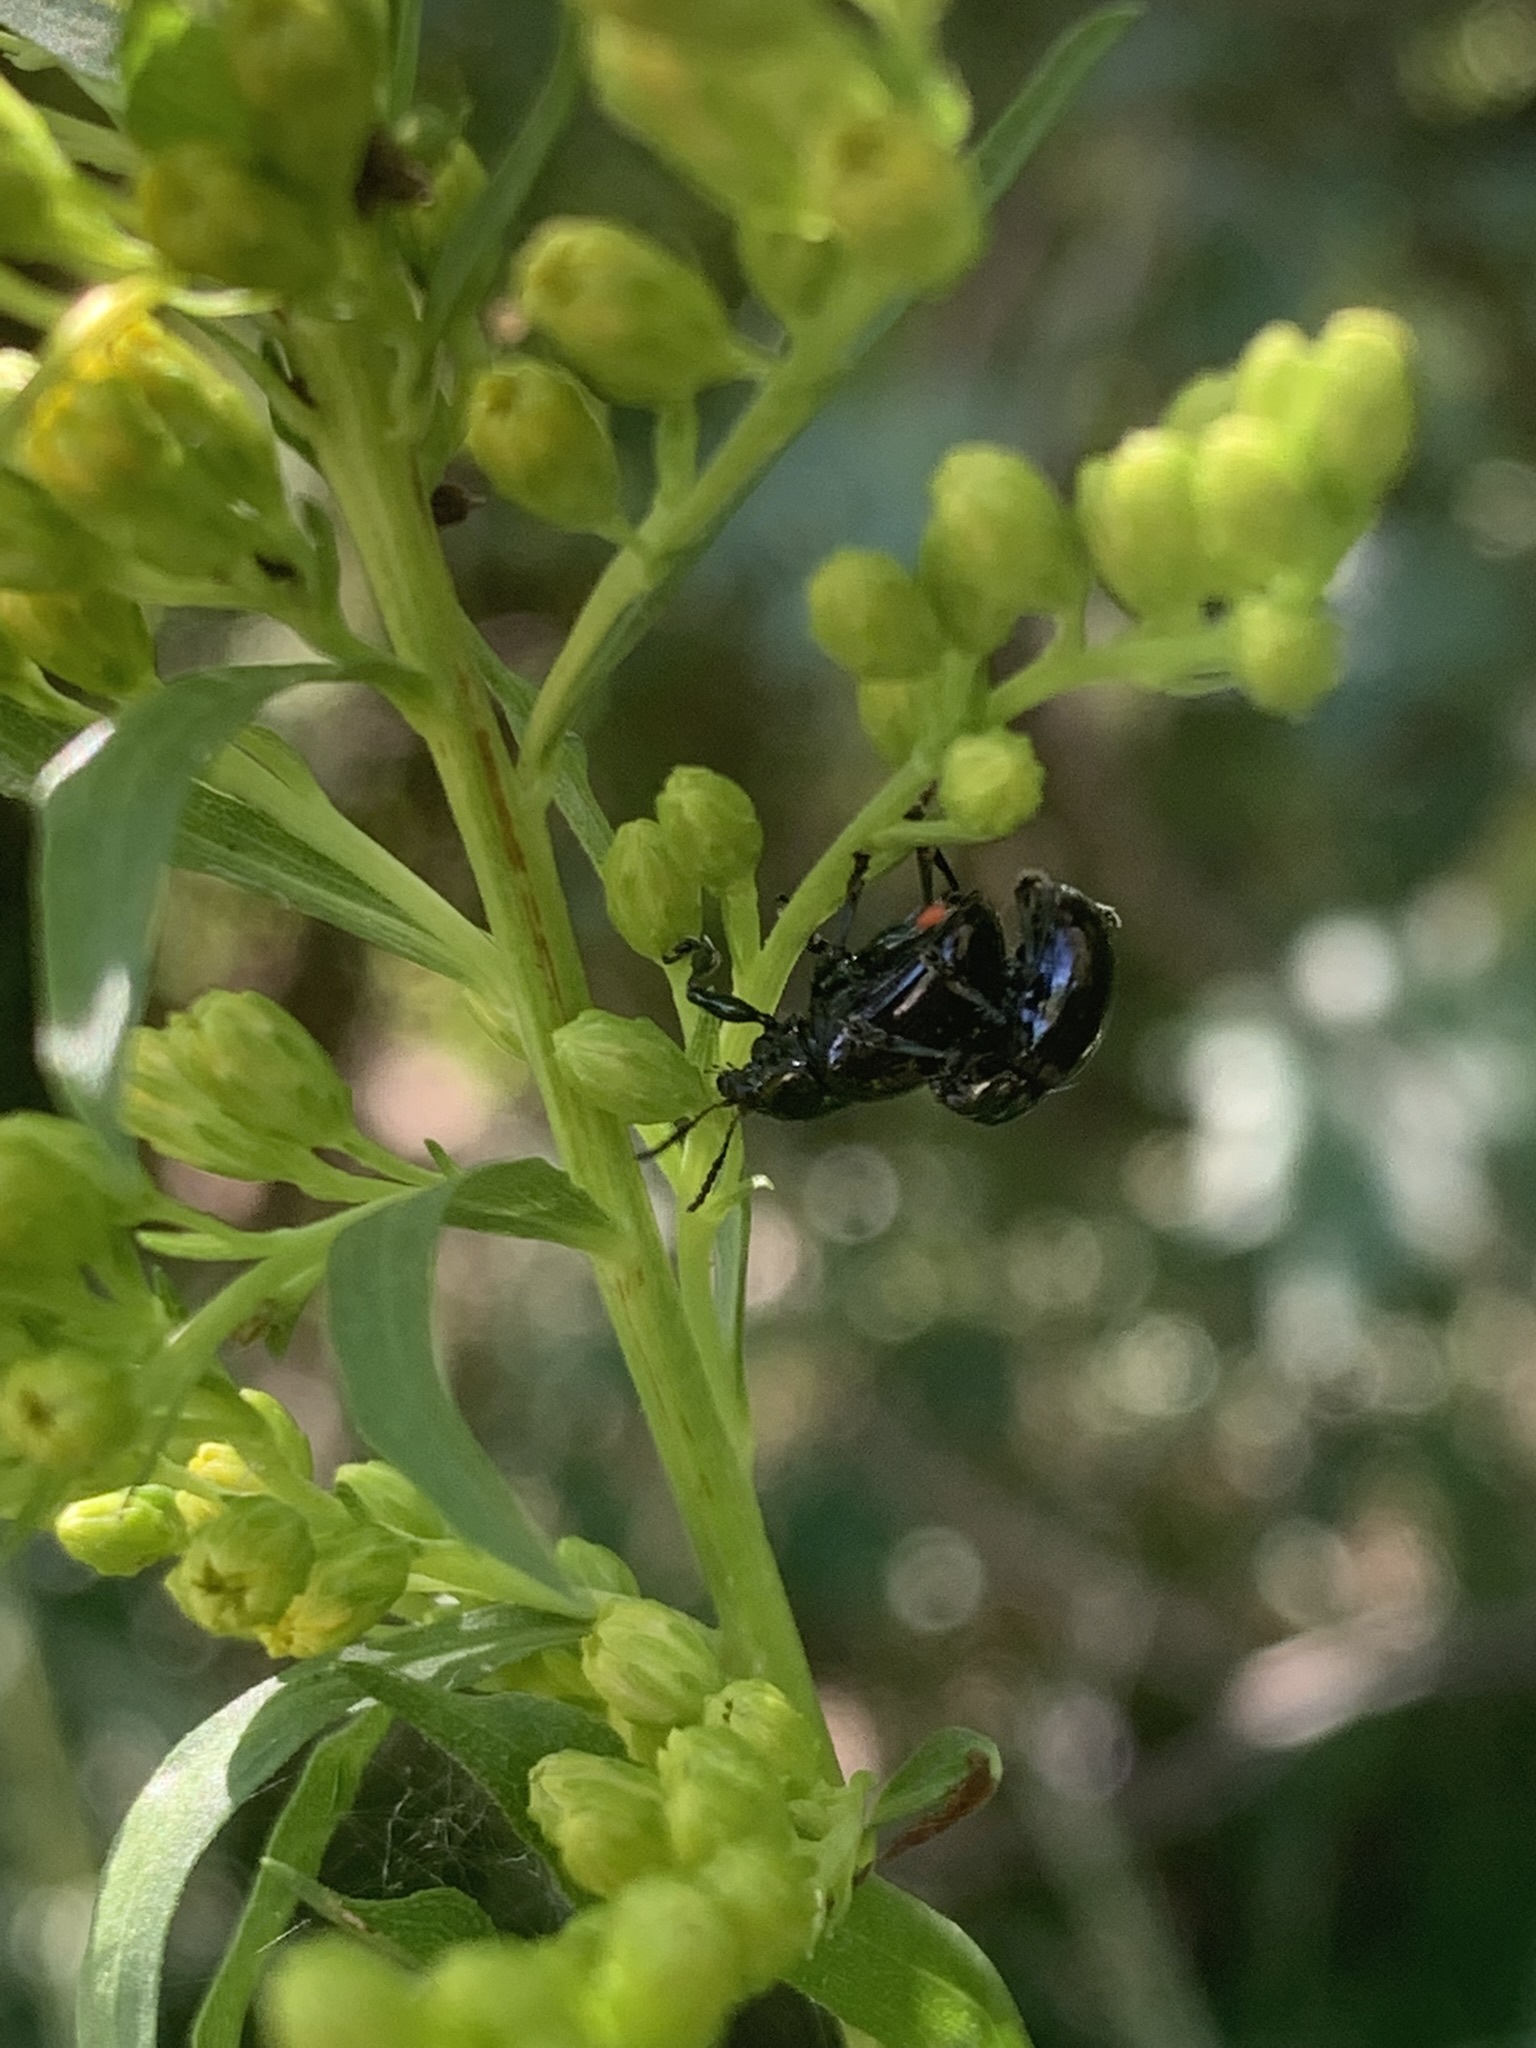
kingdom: Animalia
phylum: Arthropoda
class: Insecta
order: Coleoptera
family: Chrysomelidae
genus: Typophorus
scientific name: Typophorus nigritus
